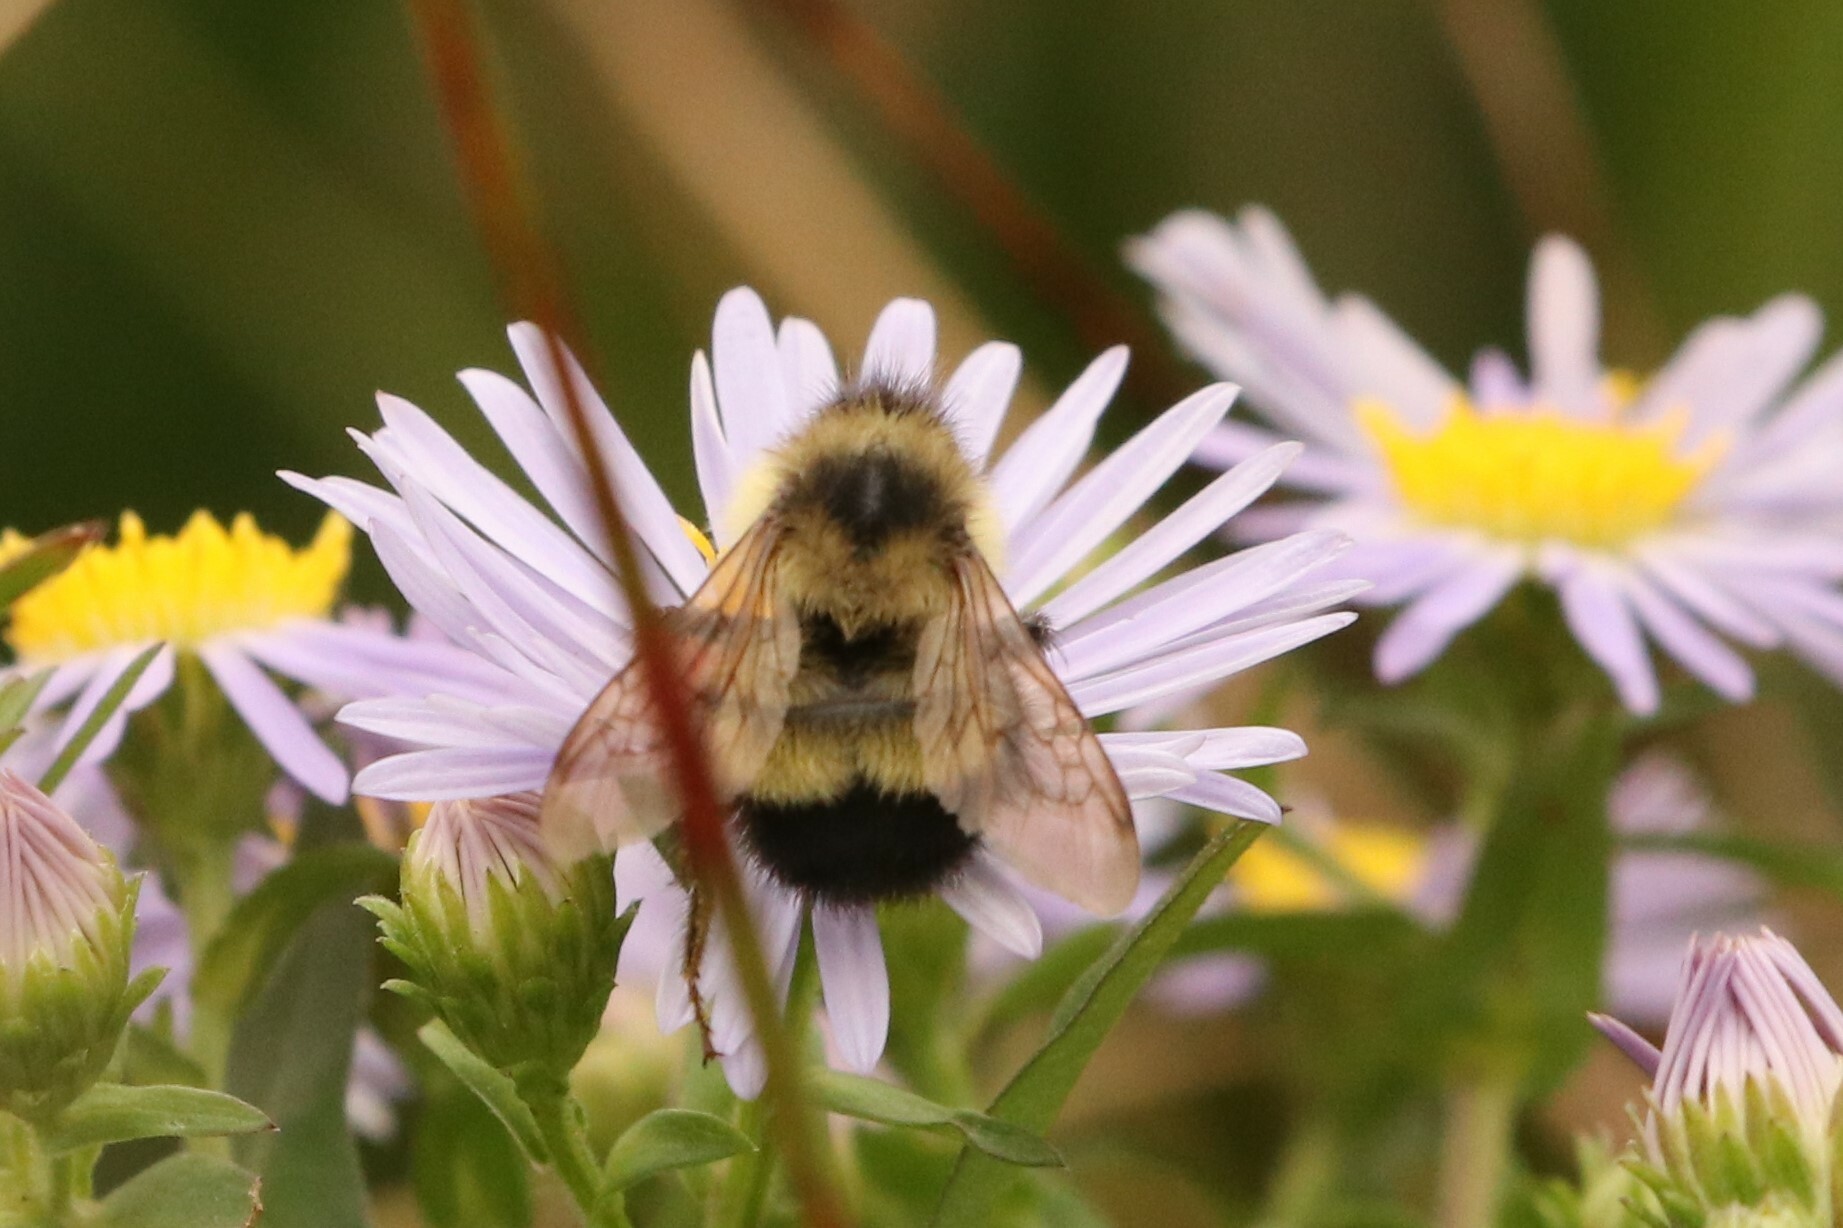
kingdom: Animalia
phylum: Arthropoda
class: Insecta
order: Hymenoptera
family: Apidae
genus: Bombus
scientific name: Bombus vagans
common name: Half-black bumble bee
